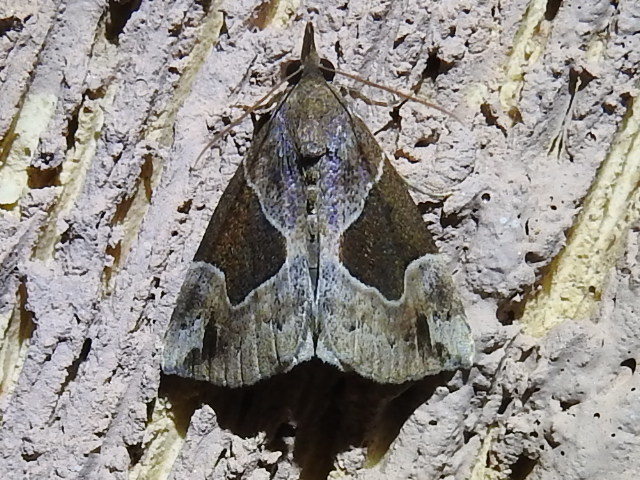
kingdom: Animalia
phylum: Arthropoda
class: Insecta
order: Lepidoptera
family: Erebidae
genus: Hypena
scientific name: Hypena manalis
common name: Flowing-line bomolocha moth
